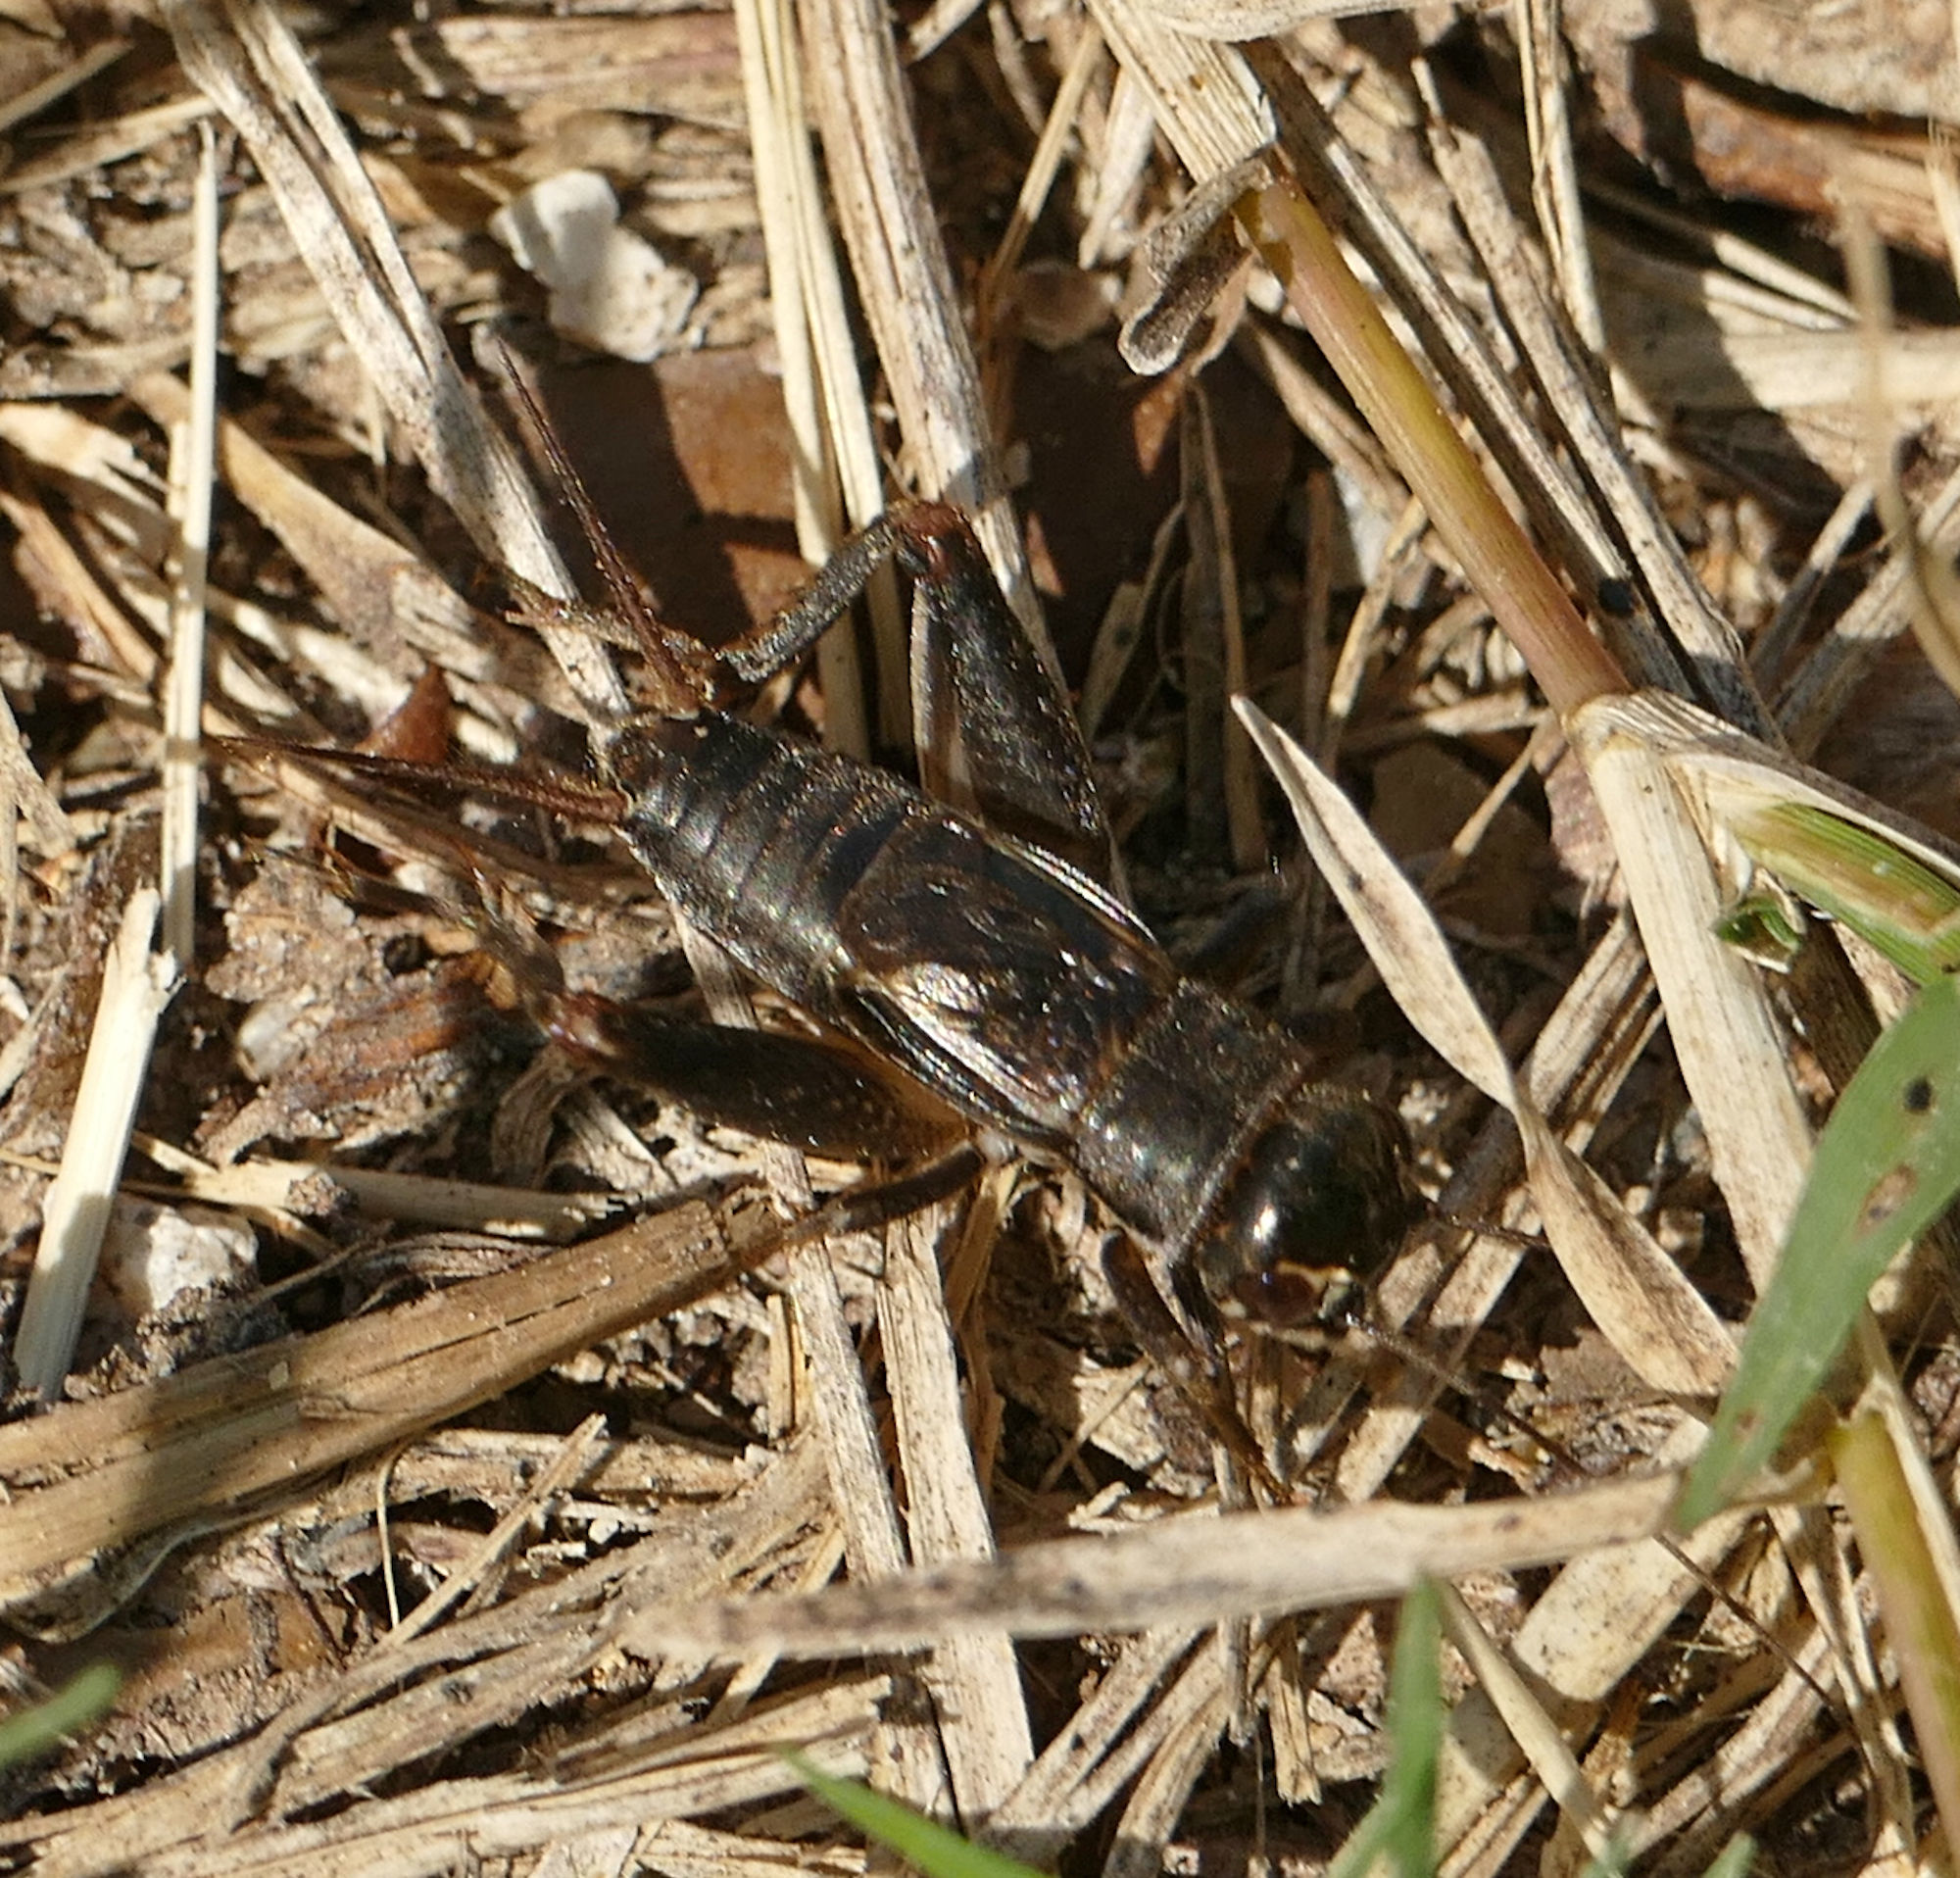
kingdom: Animalia
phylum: Arthropoda
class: Insecta
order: Orthoptera
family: Gryllidae
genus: Miogryllus
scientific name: Miogryllus verticalis
